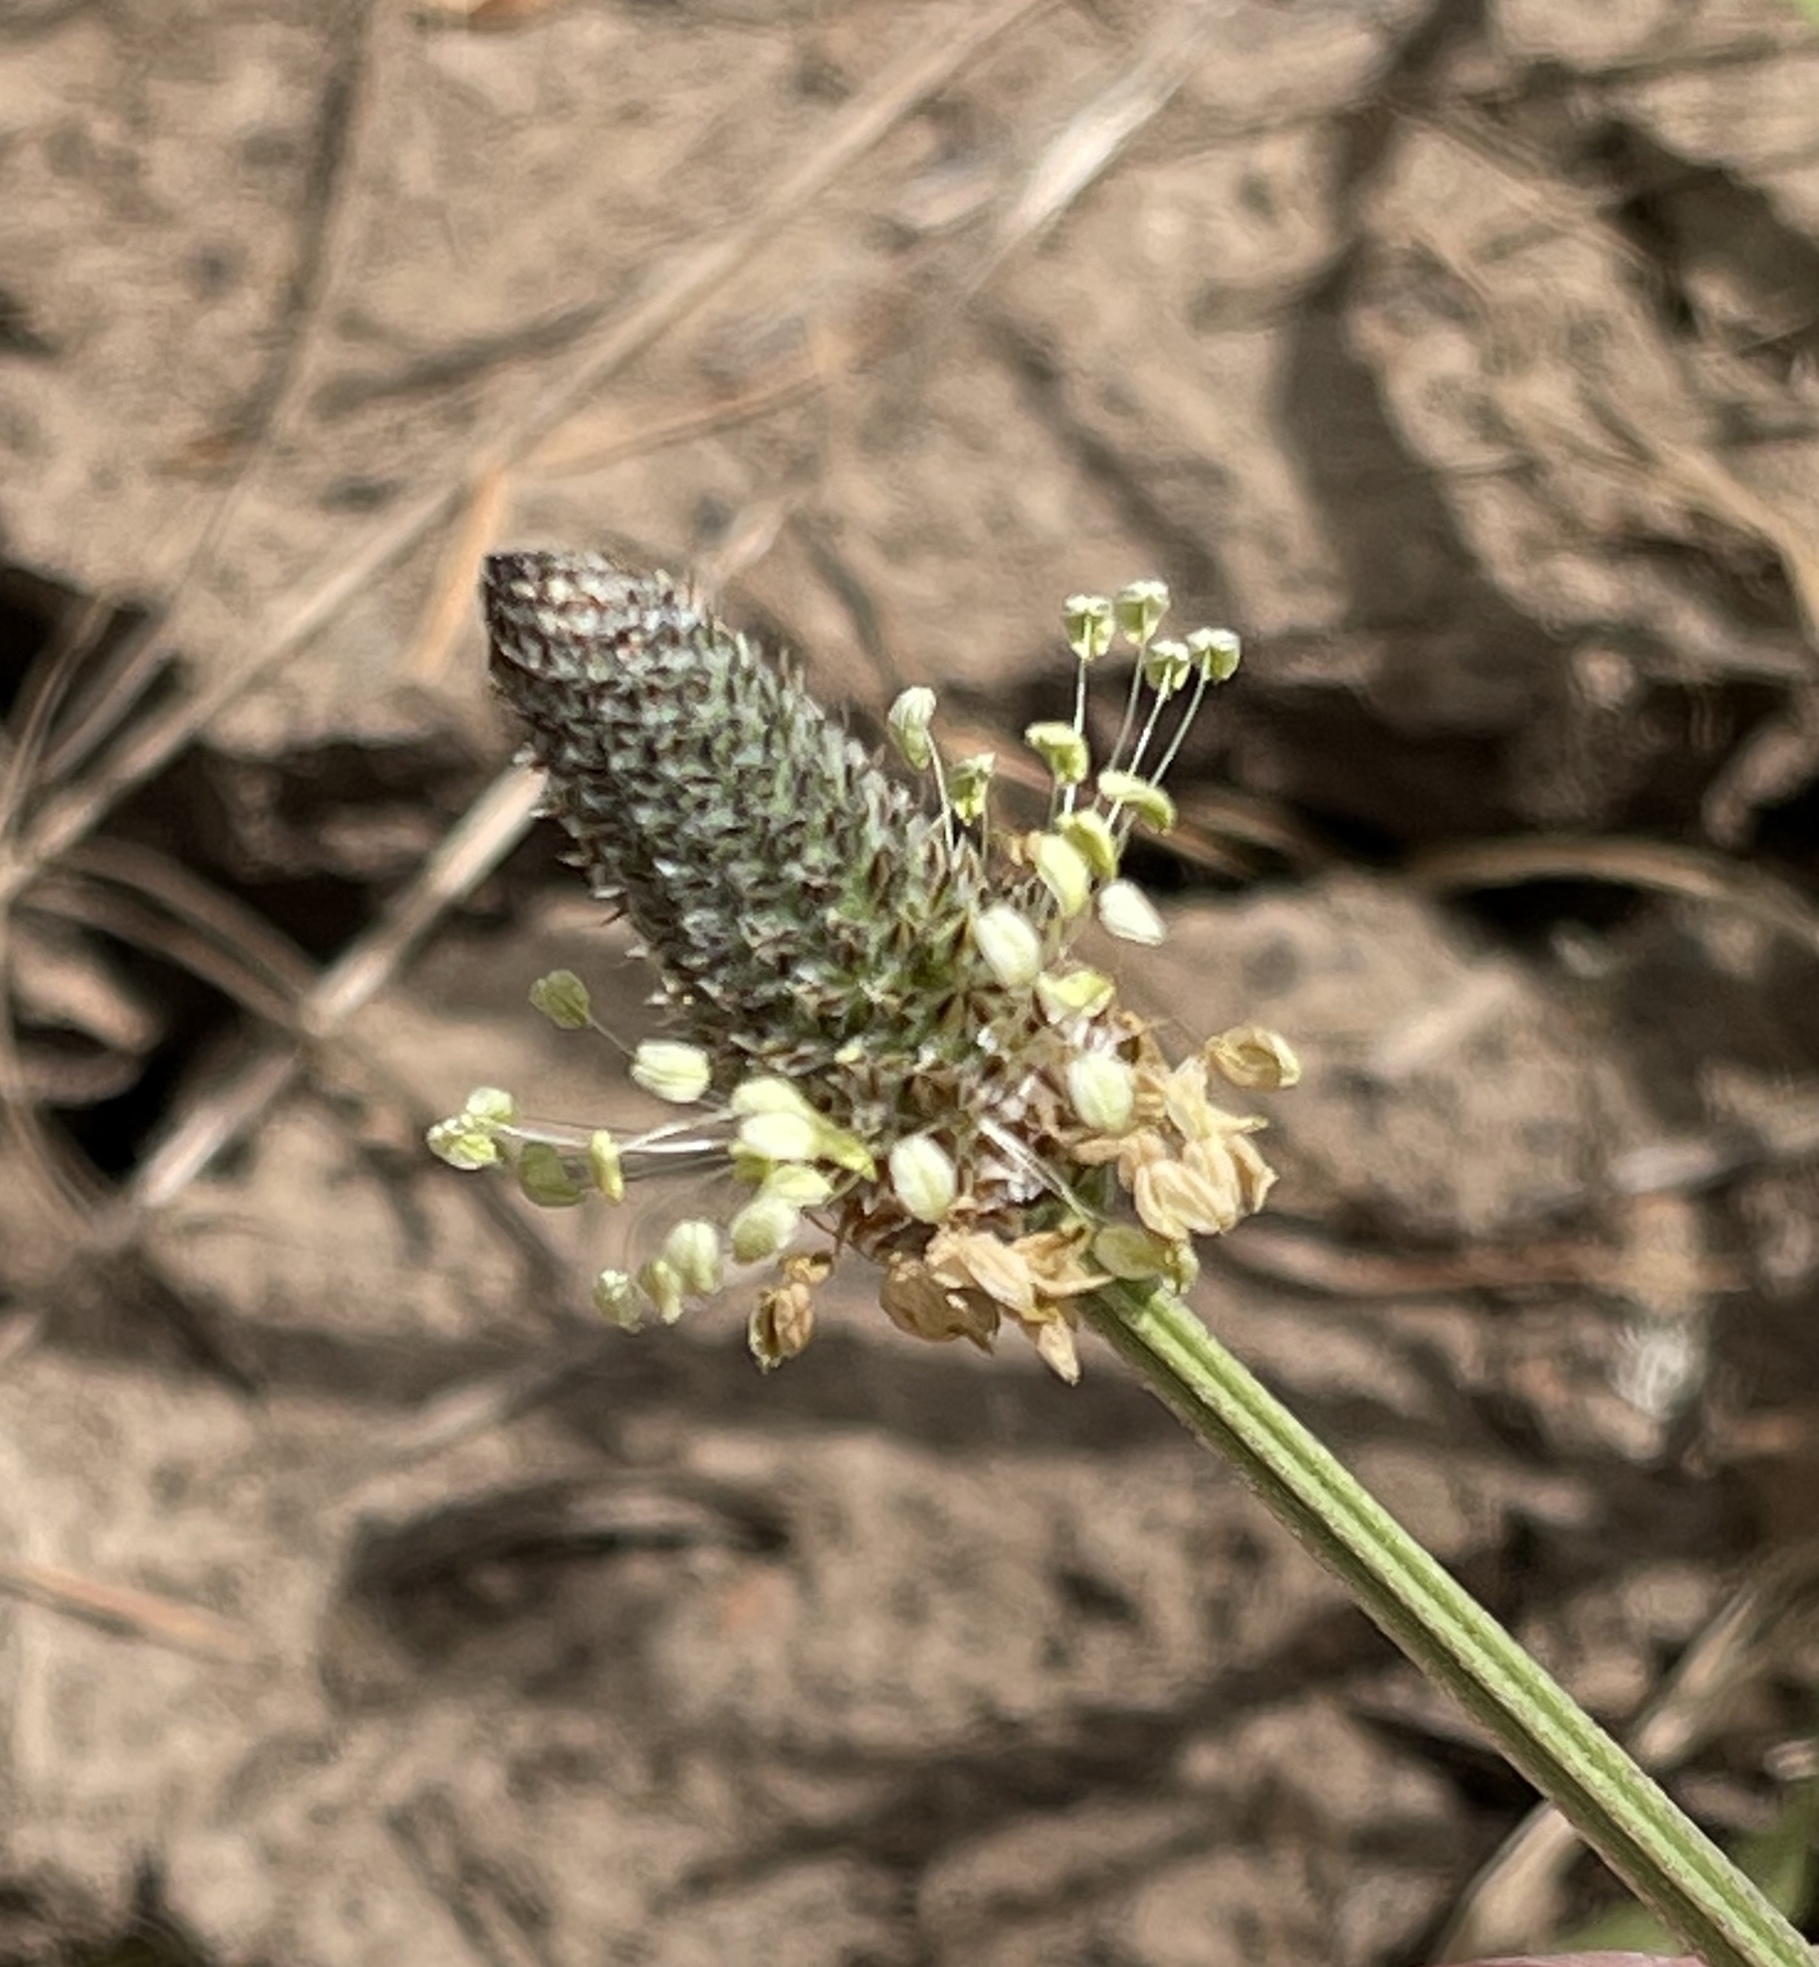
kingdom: Plantae
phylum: Tracheophyta
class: Magnoliopsida
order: Lamiales
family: Plantaginaceae
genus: Plantago
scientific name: Plantago lanceolata
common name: Ribwort plantain
